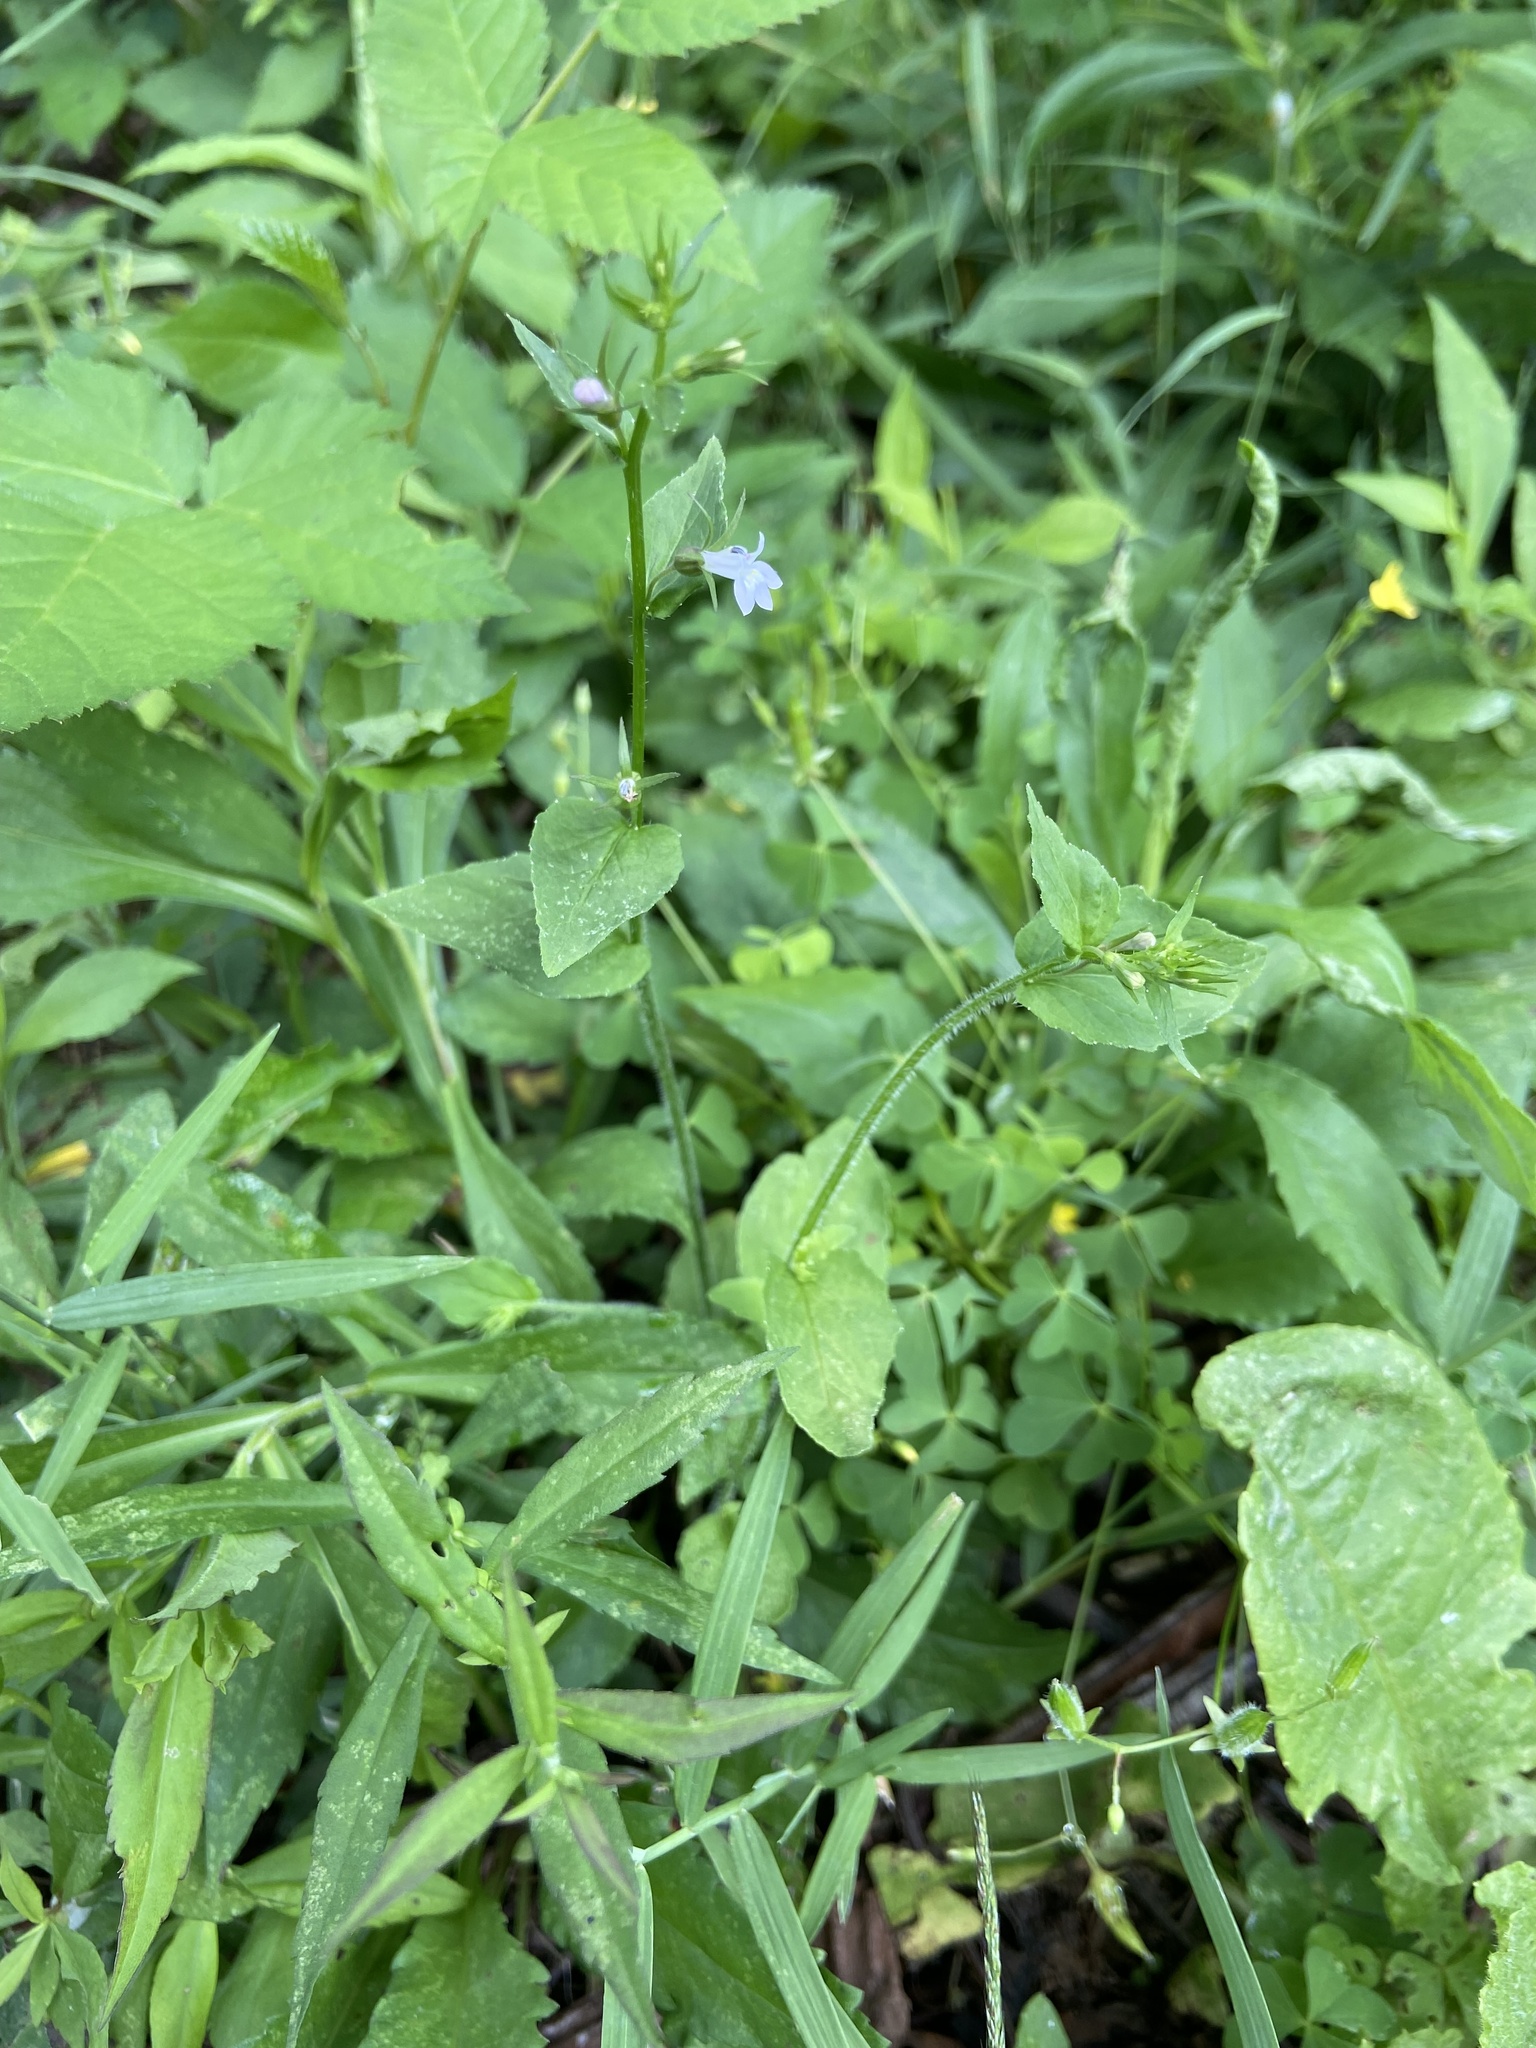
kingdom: Plantae
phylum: Tracheophyta
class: Magnoliopsida
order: Asterales
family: Campanulaceae
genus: Lobelia
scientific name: Lobelia inflata
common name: Indian tobacco
